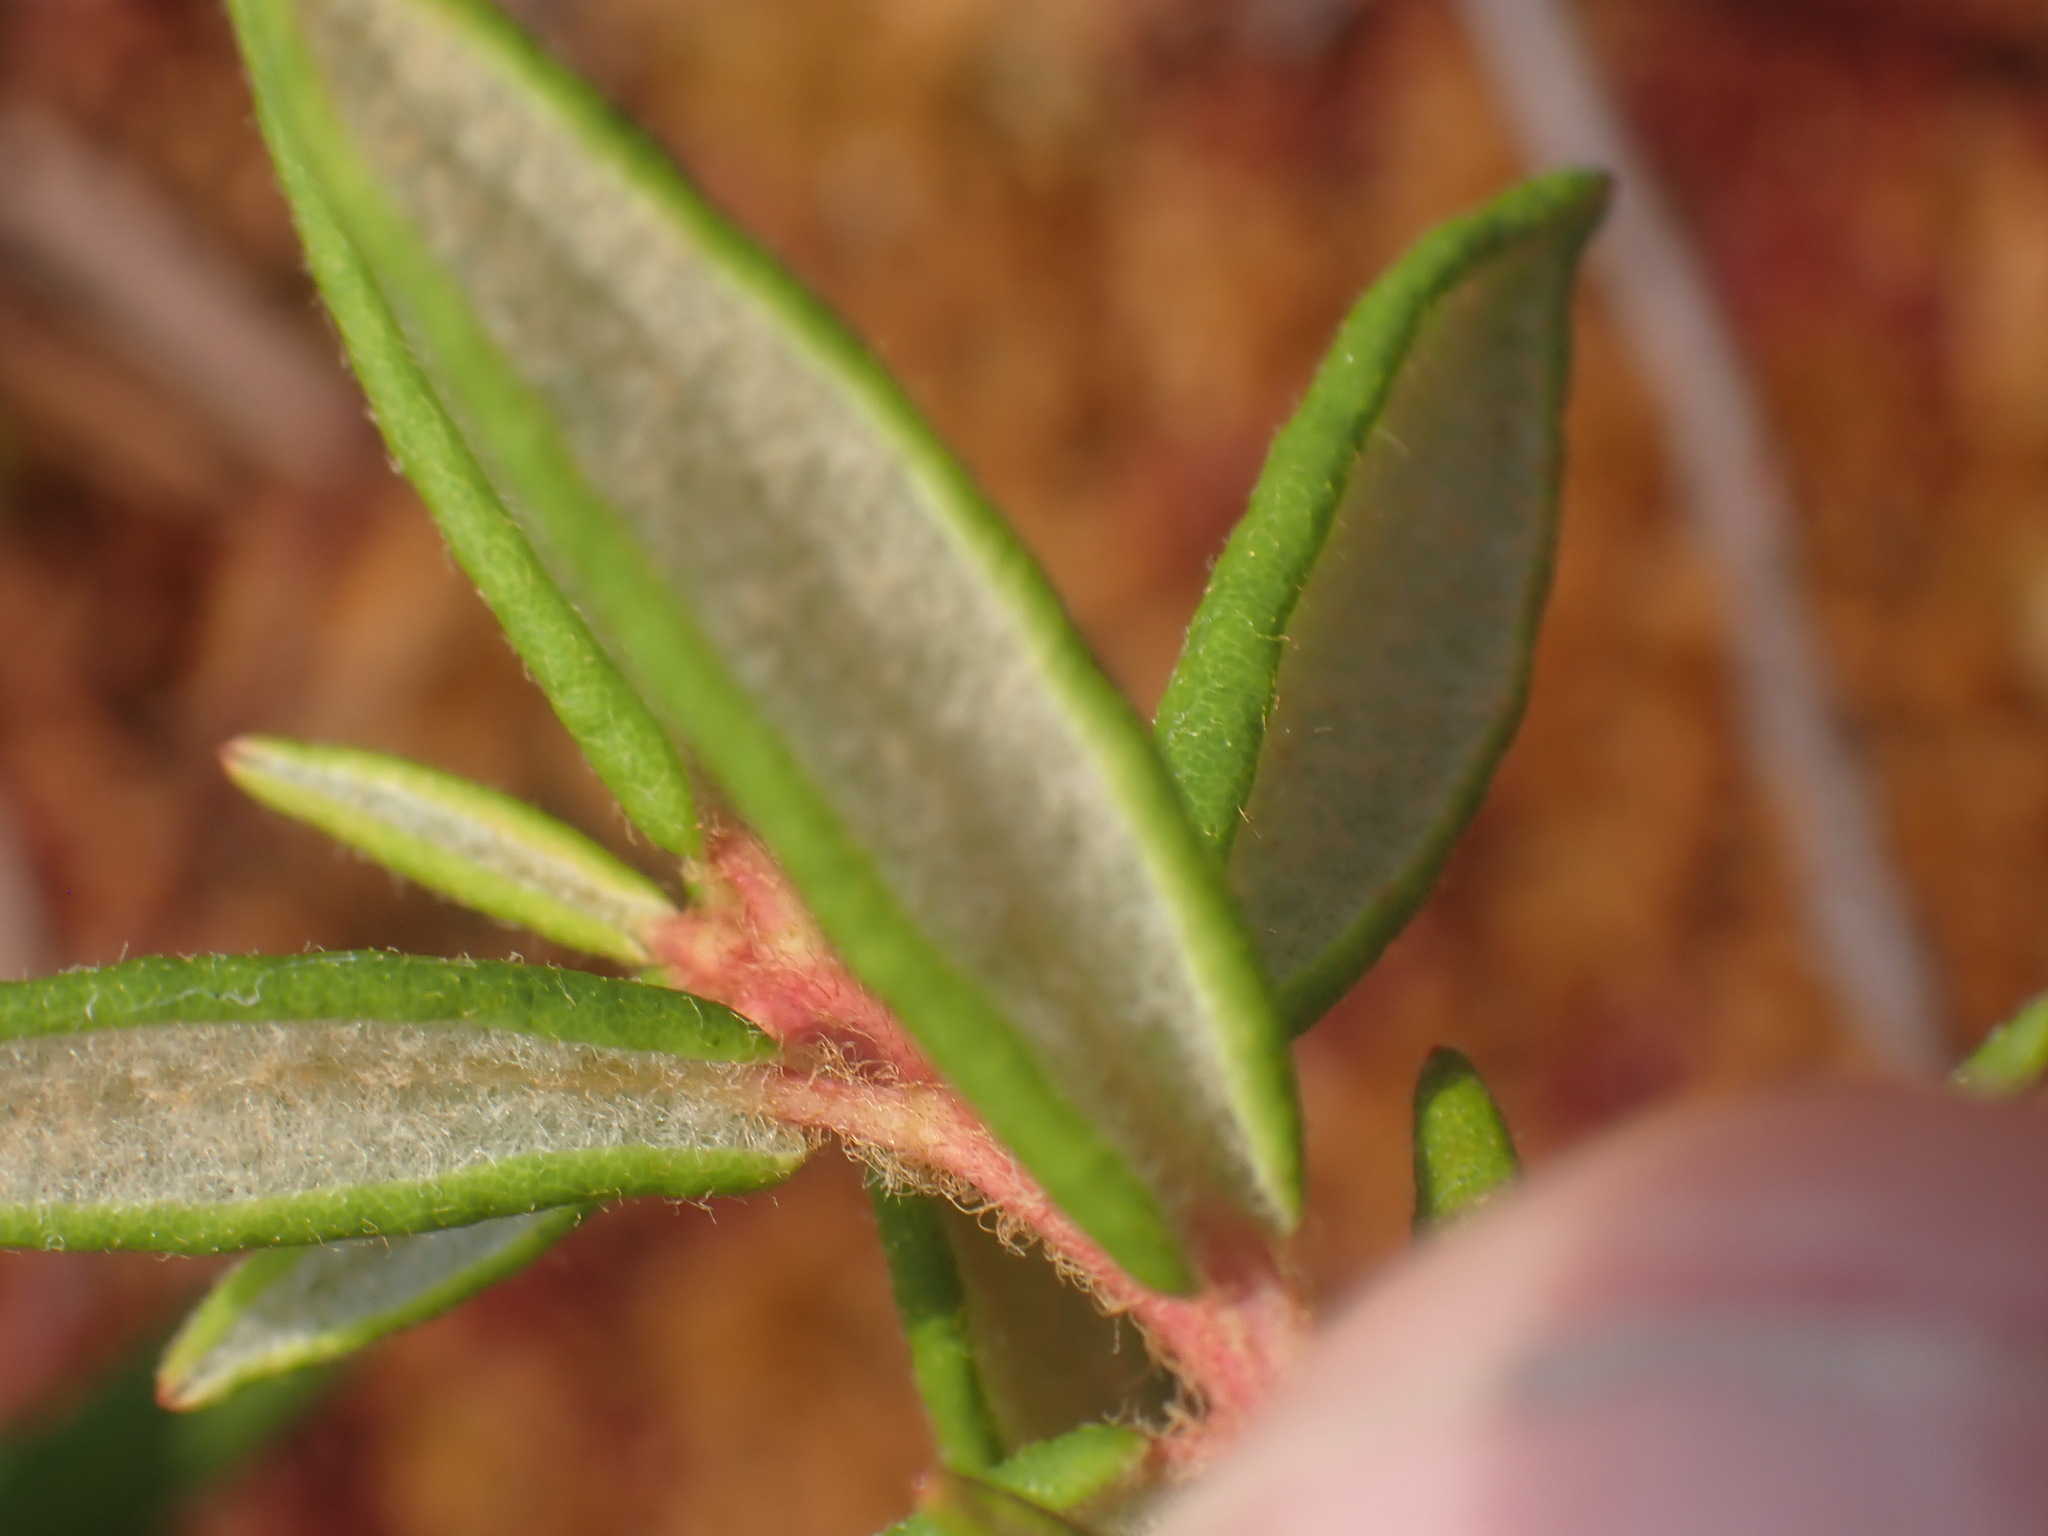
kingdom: Plantae
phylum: Tracheophyta
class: Magnoliopsida
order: Ericales
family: Ericaceae
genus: Rhododendron
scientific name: Rhododendron groenlandicum
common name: Bog labrador tea
